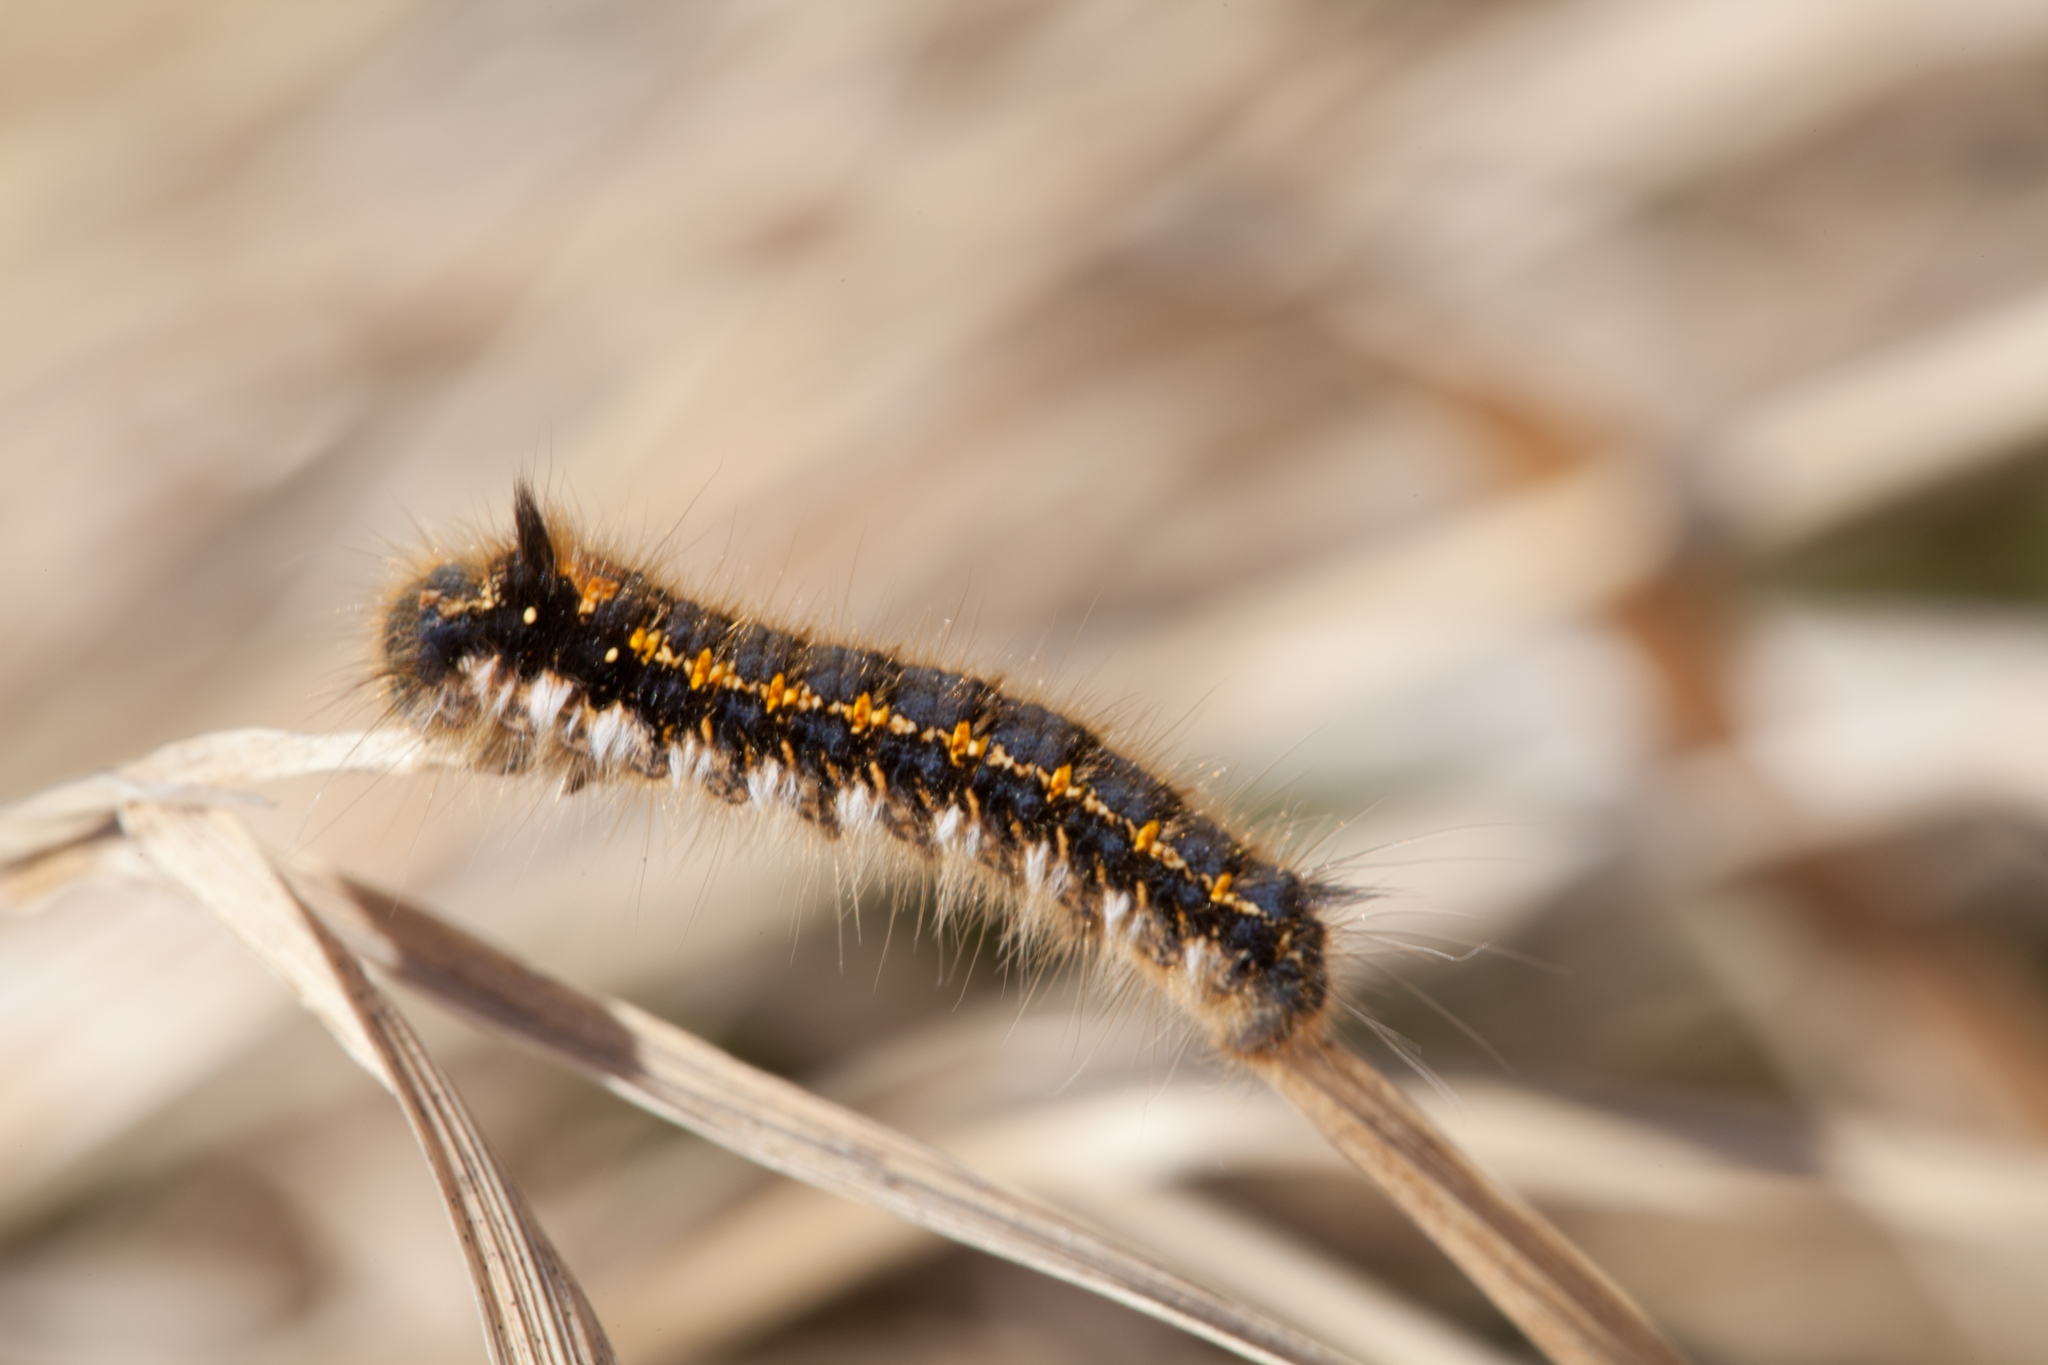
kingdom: Animalia
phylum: Arthropoda
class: Insecta
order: Lepidoptera
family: Lasiocampidae
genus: Euthrix
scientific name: Euthrix potatoria
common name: Drinker
